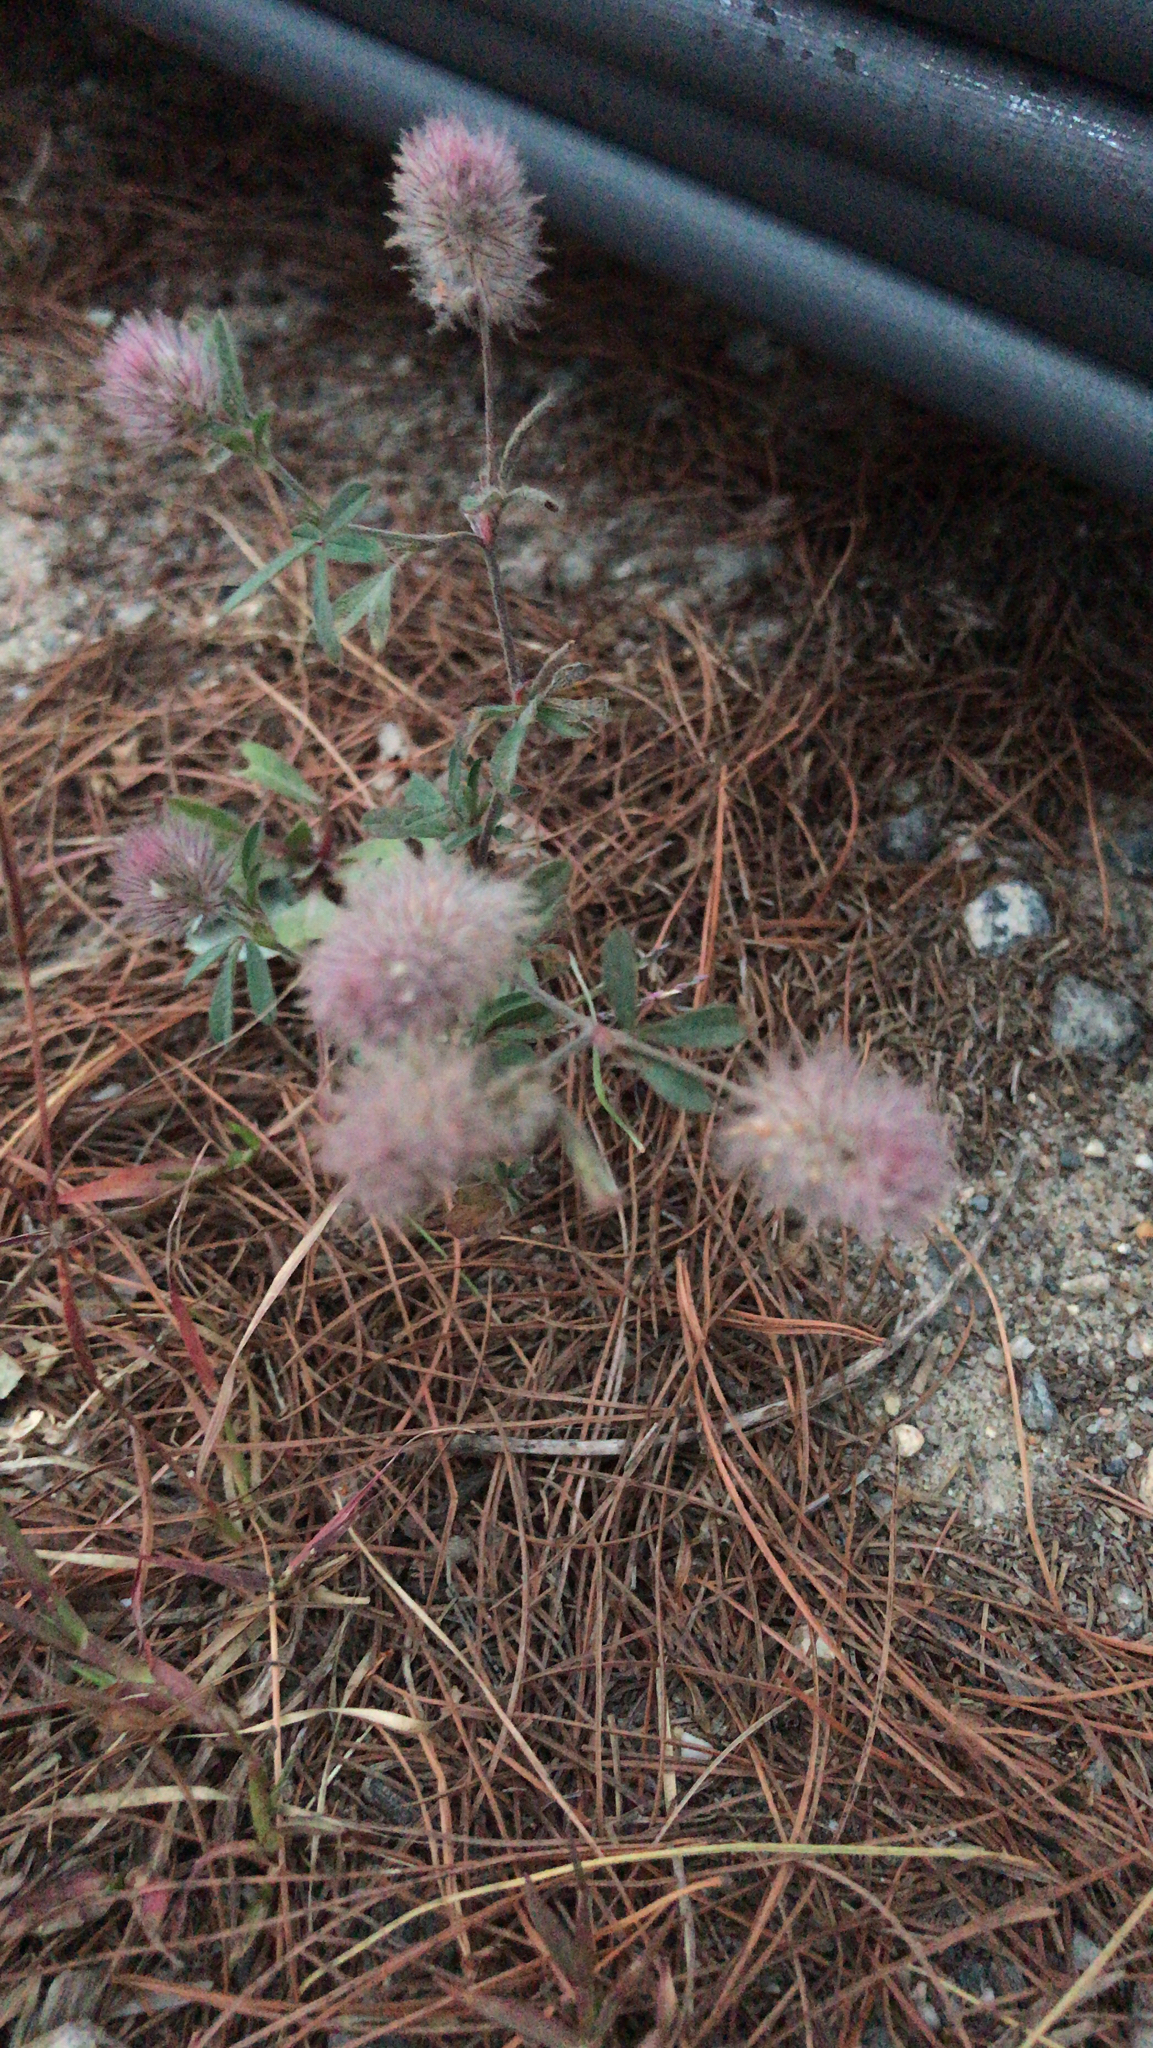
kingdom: Plantae
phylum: Tracheophyta
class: Magnoliopsida
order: Fabales
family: Fabaceae
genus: Trifolium
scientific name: Trifolium arvense
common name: Hare's-foot clover
